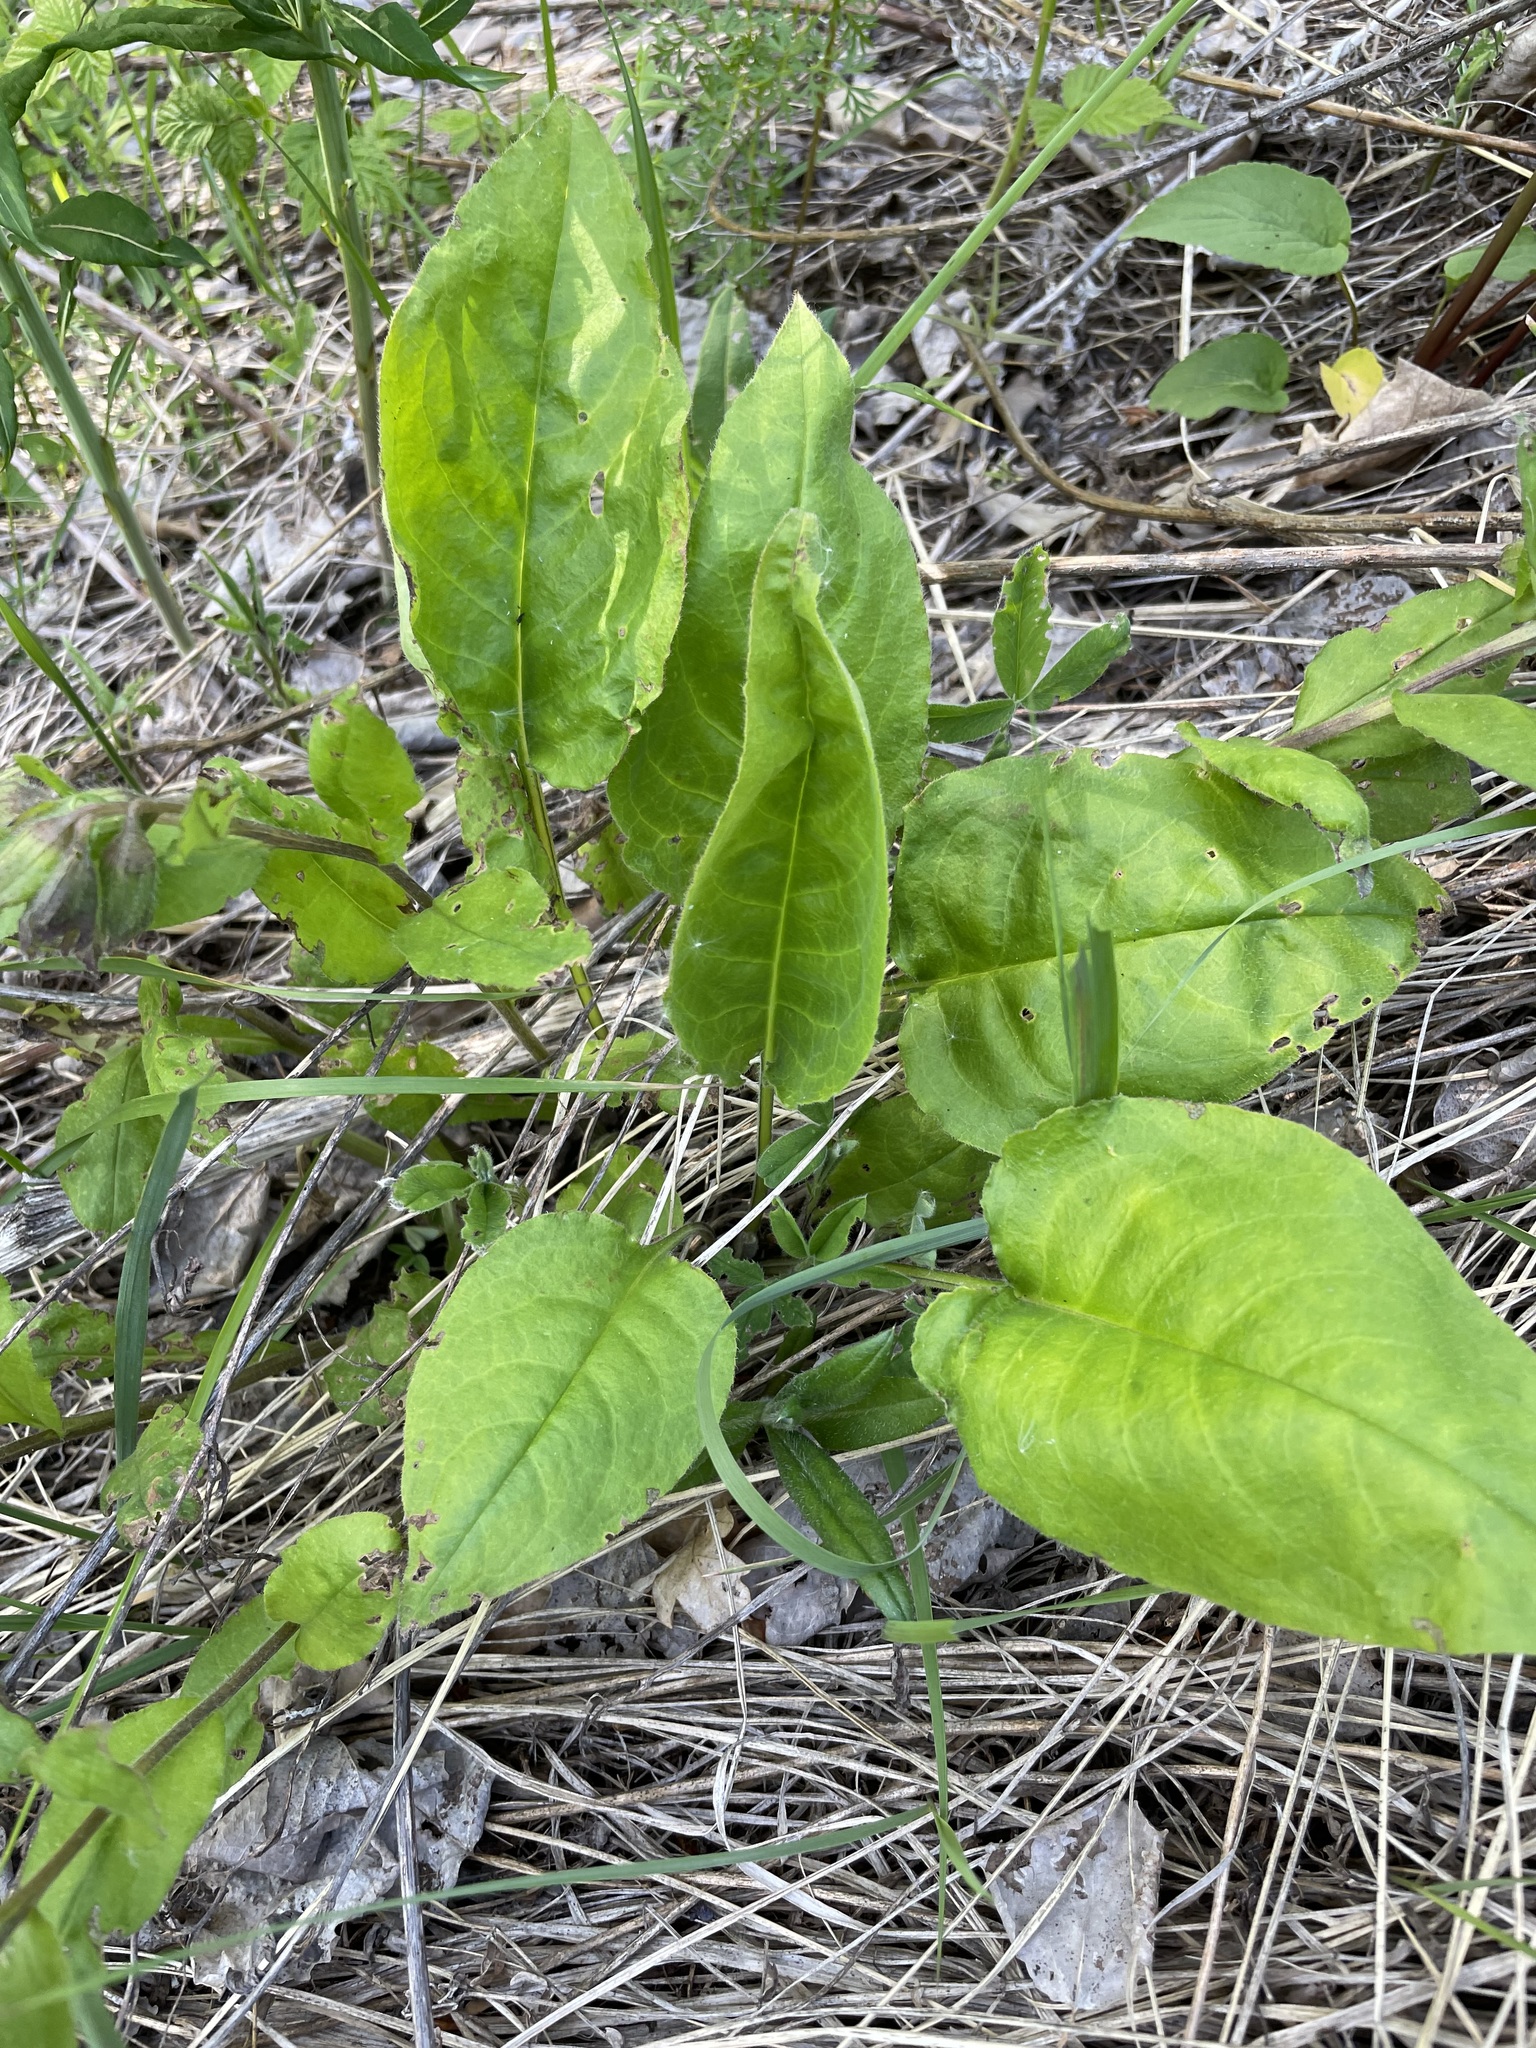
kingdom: Plantae
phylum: Tracheophyta
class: Magnoliopsida
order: Boraginales
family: Boraginaceae
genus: Pulmonaria
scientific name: Pulmonaria obscura
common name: Suffolk lungwort
